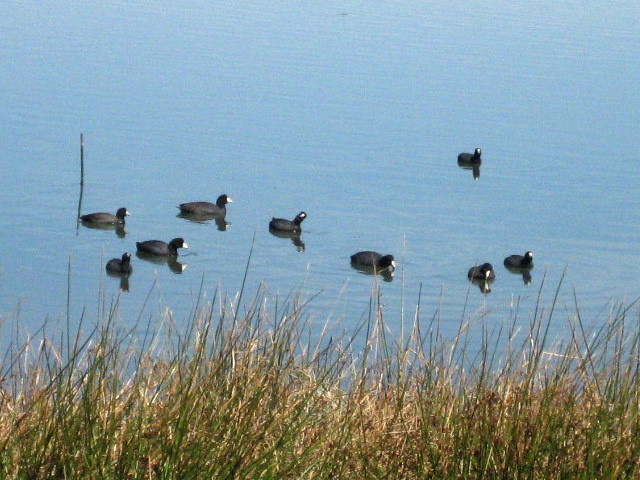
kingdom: Animalia
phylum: Chordata
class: Aves
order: Gruiformes
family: Rallidae
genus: Fulica
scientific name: Fulica americana
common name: American coot
